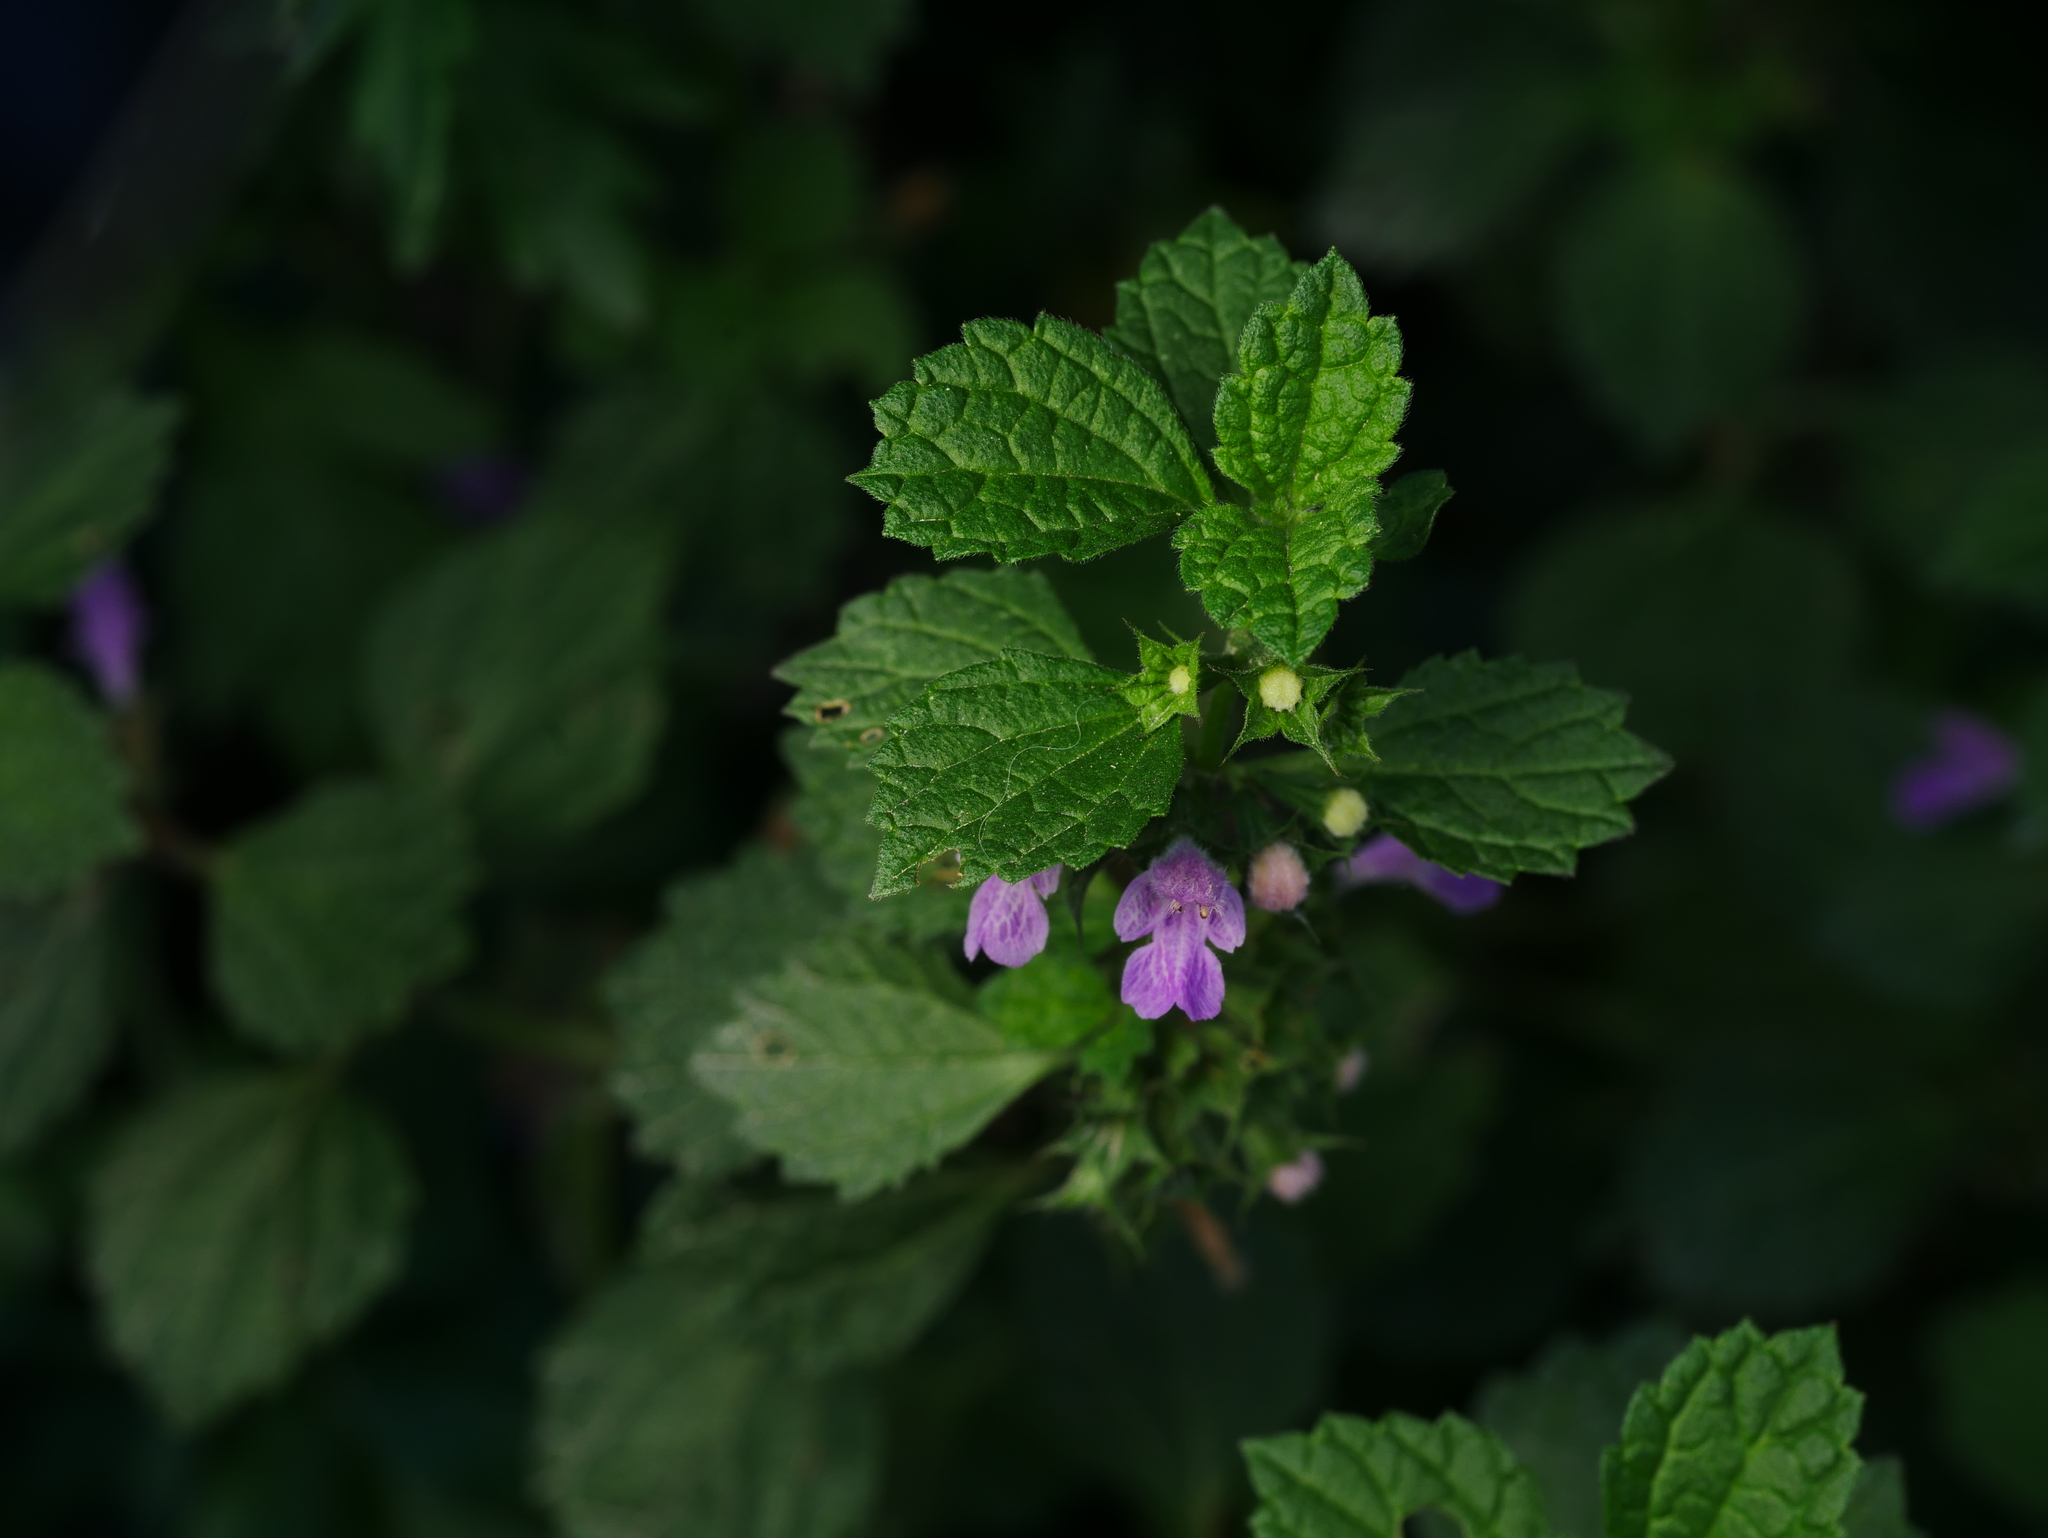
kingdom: Plantae
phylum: Tracheophyta
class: Magnoliopsida
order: Lamiales
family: Lamiaceae
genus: Ballota
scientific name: Ballota nigra
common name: Black horehound
